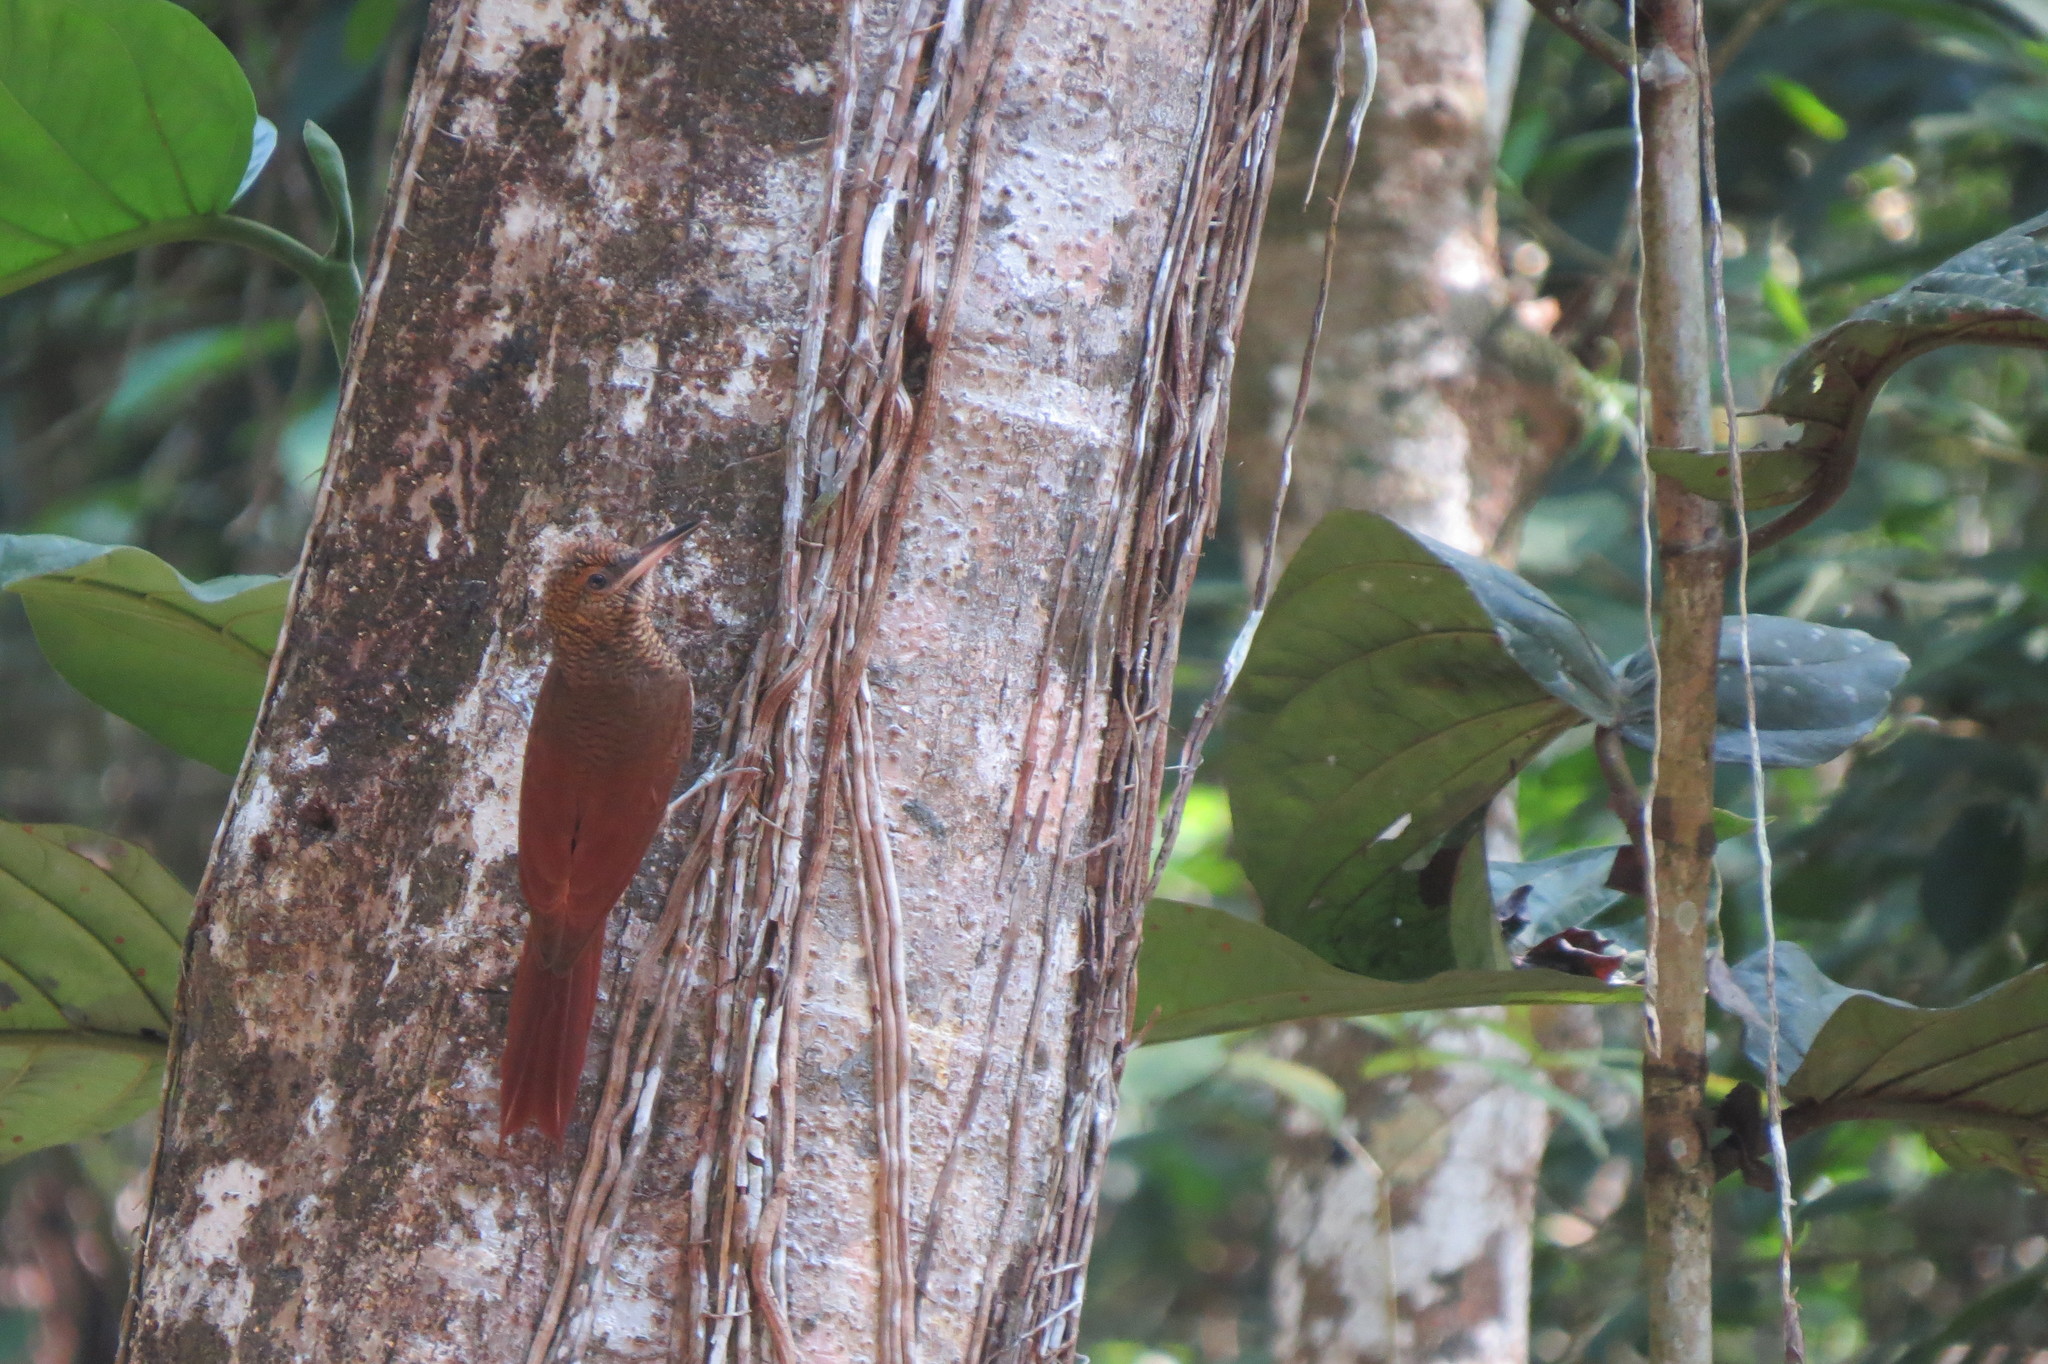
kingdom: Animalia
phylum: Chordata
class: Aves
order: Passeriformes
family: Furnariidae
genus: Dendrocolaptes
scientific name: Dendrocolaptes sanctithomae
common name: Northern barred-woodcreeper
